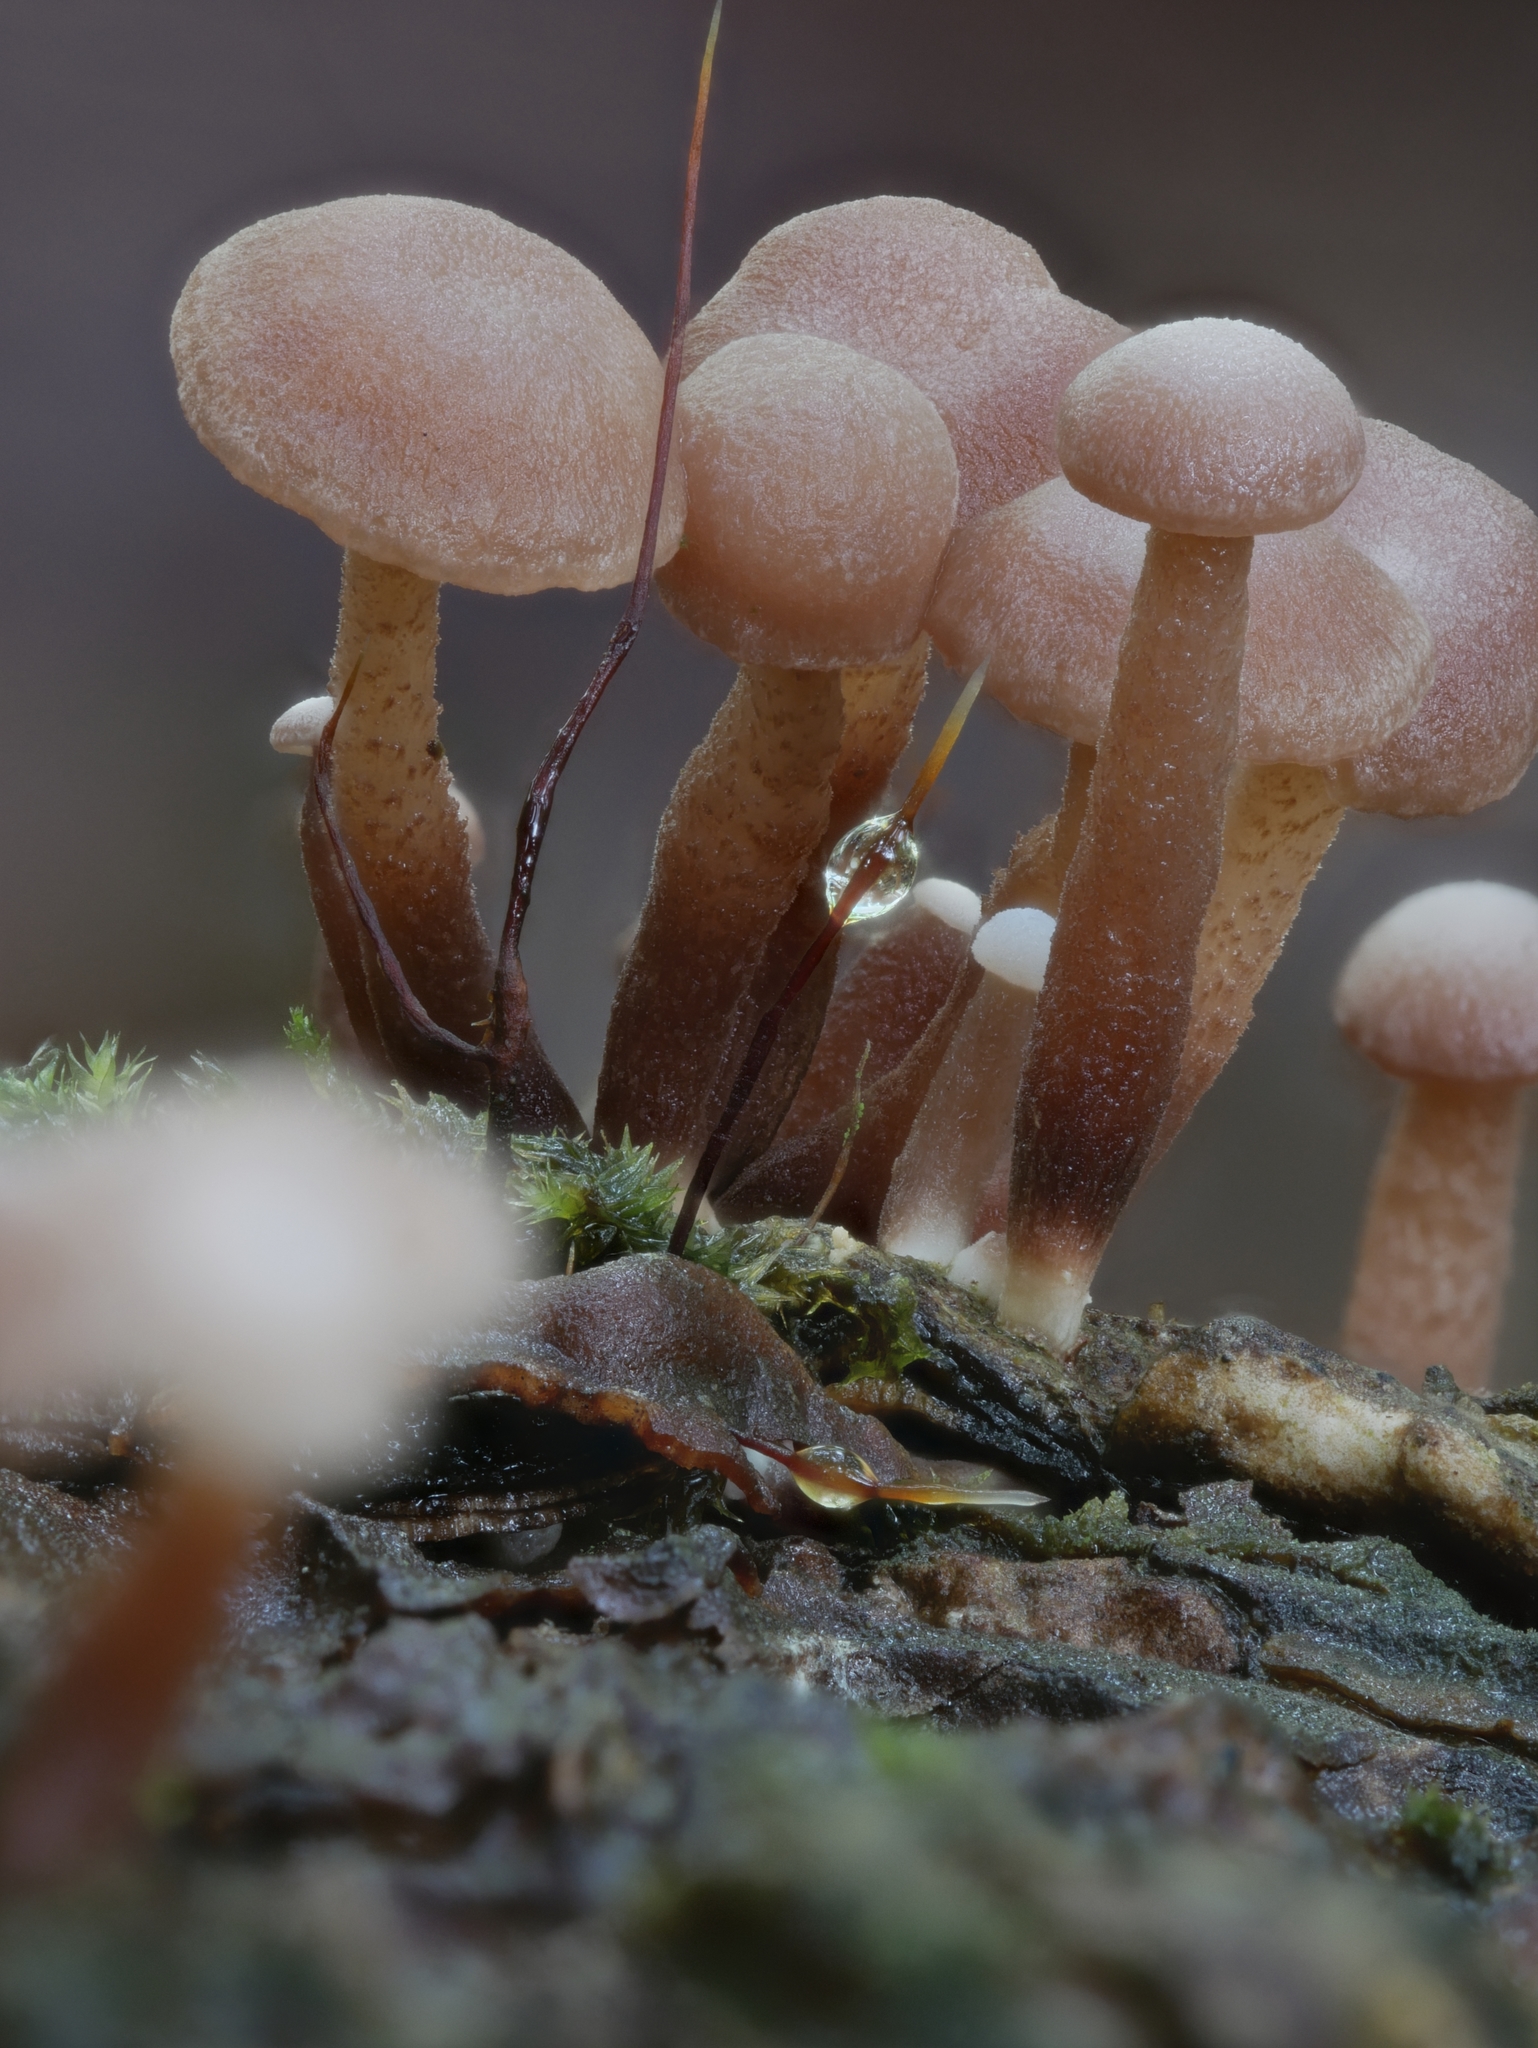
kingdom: Fungi
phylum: Basidiomycota
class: Agaricomycetes
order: Agaricales
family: Omphalotaceae
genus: Marasmiellus
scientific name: Marasmiellus praeacutus
